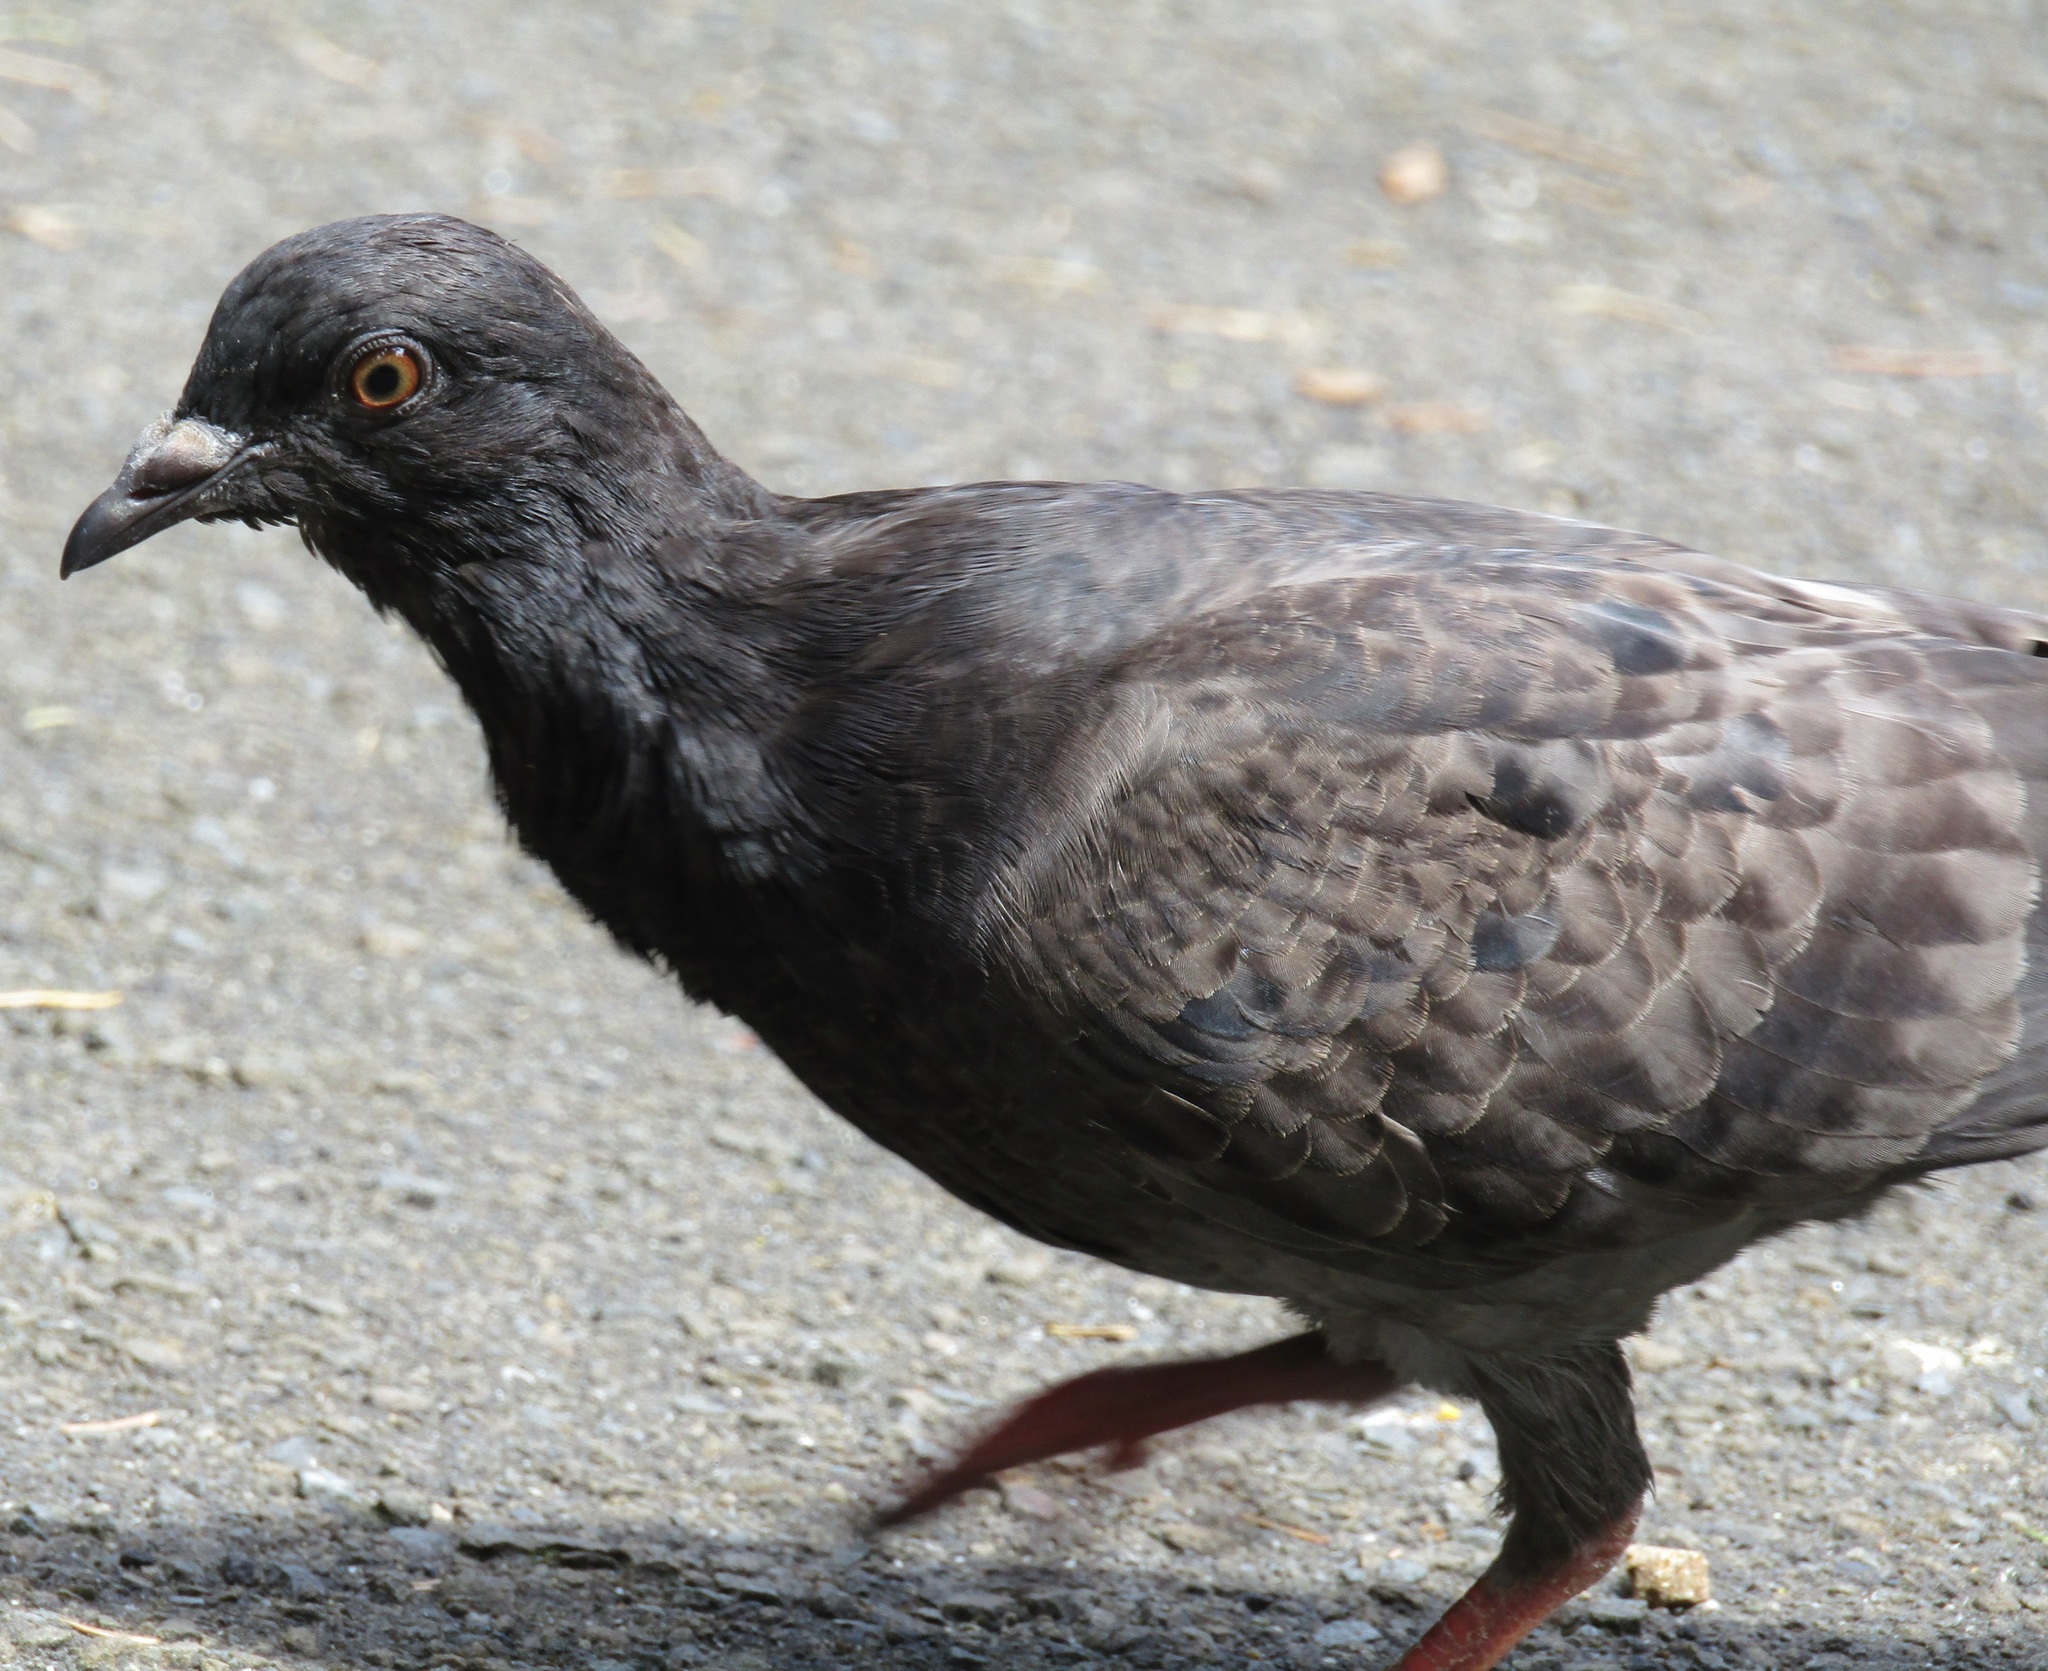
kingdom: Animalia
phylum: Chordata
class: Aves
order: Columbiformes
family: Columbidae
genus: Columba
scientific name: Columba livia
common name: Rock pigeon
